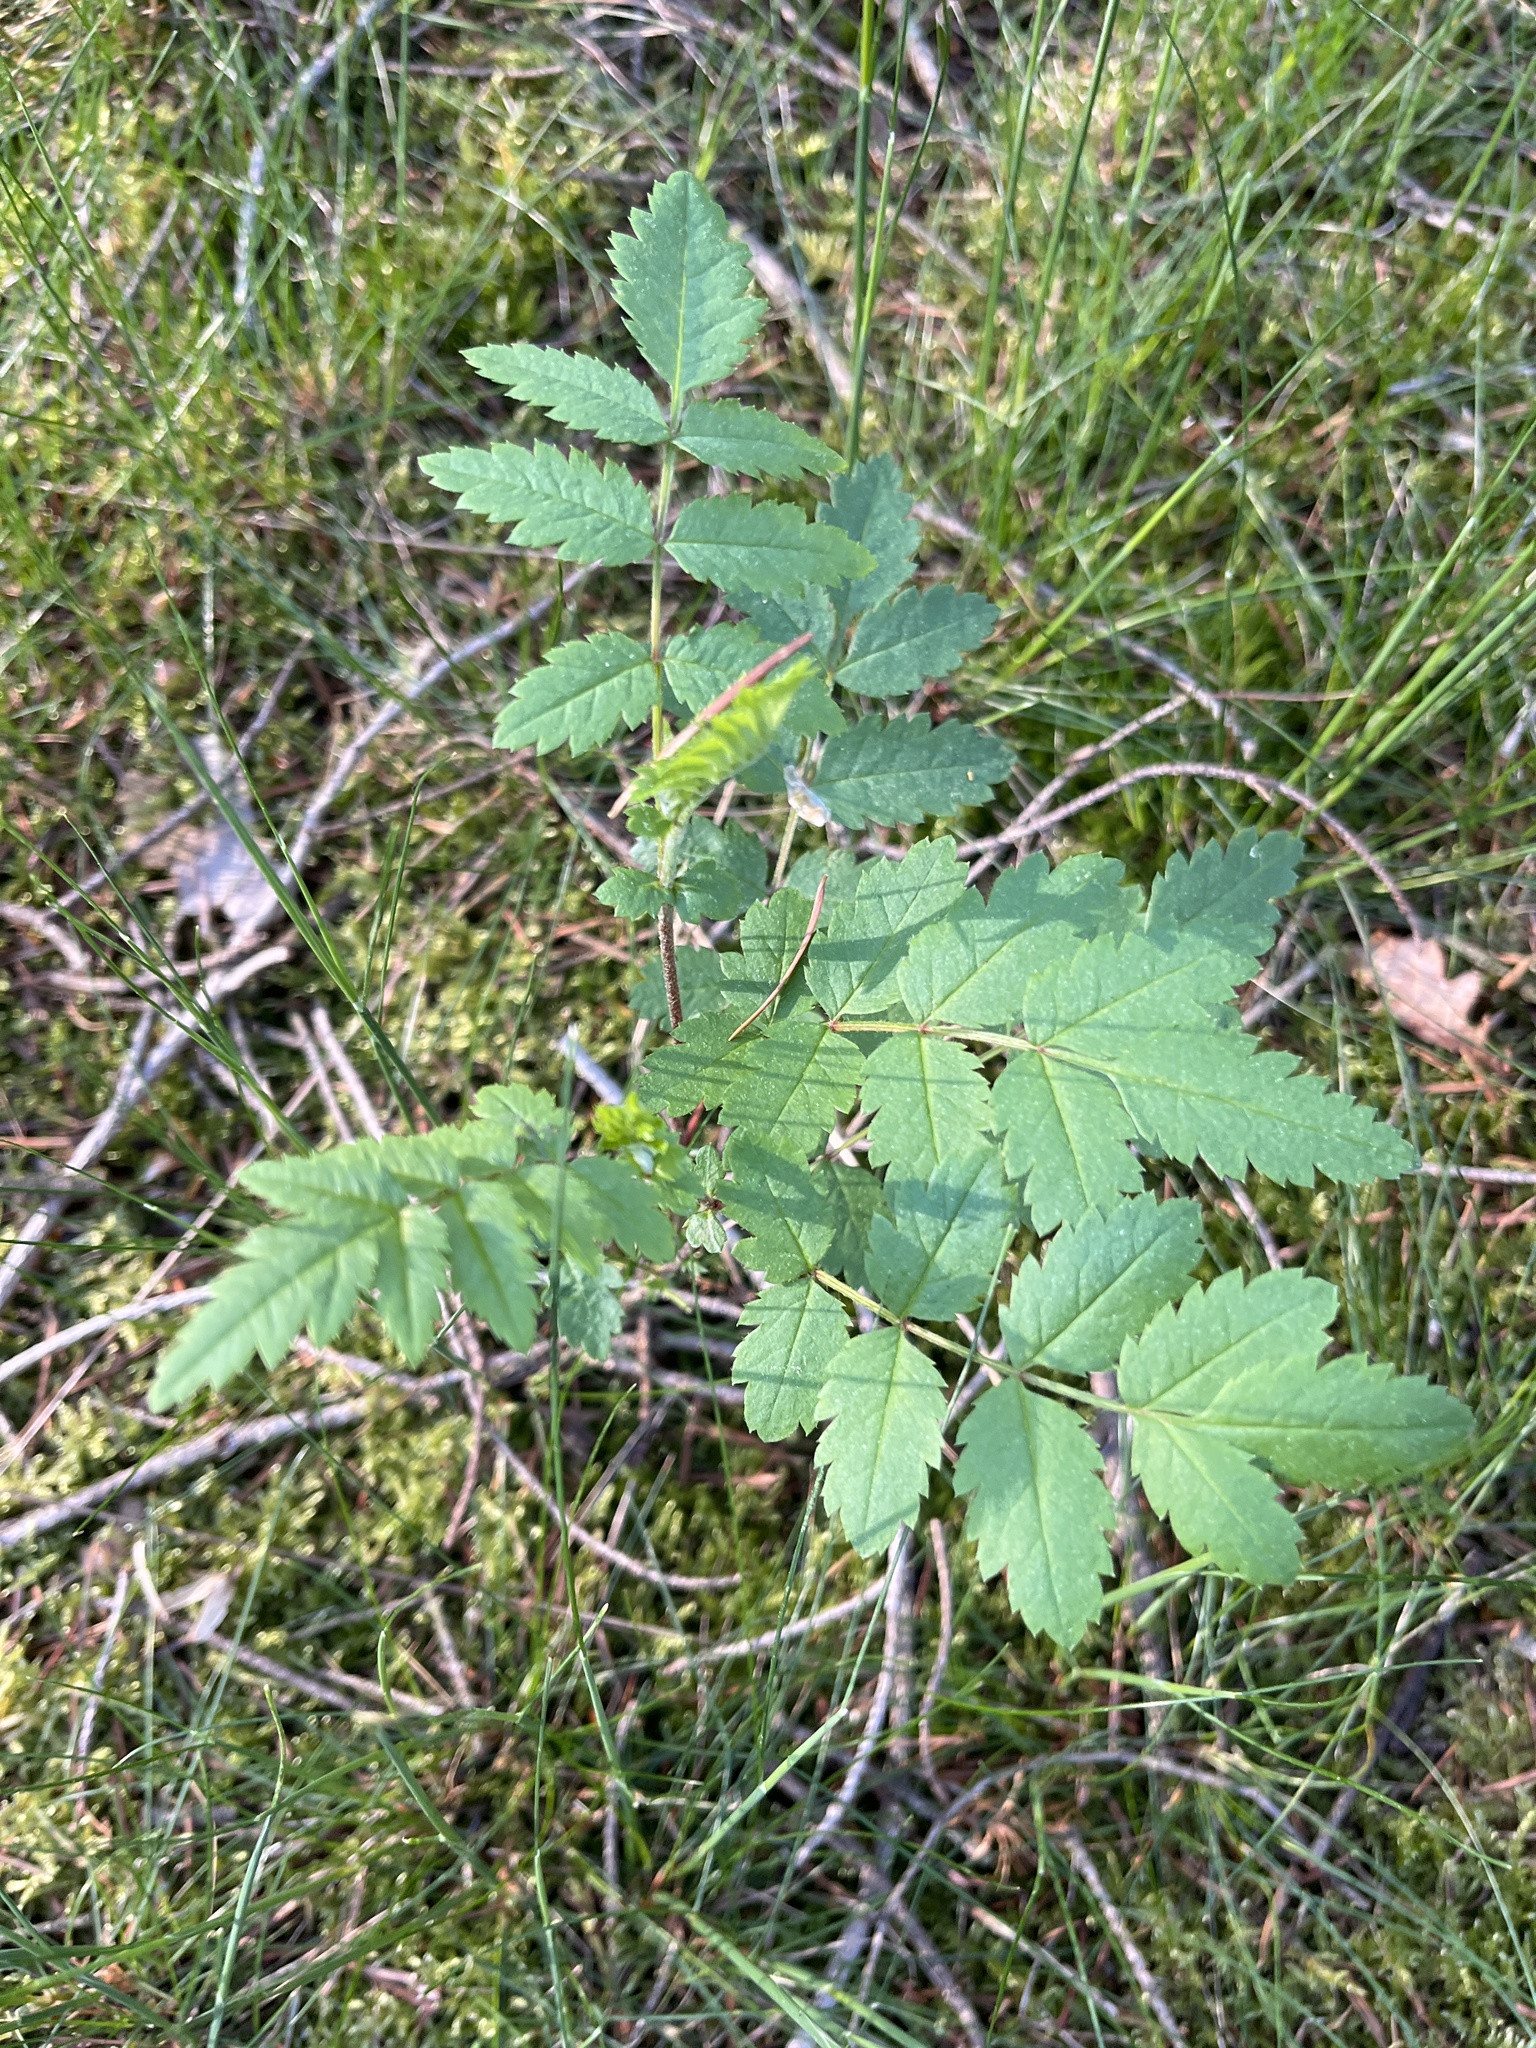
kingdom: Plantae
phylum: Tracheophyta
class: Magnoliopsida
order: Rosales
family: Rosaceae
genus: Sorbus
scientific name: Sorbus aucuparia
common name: Rowan
